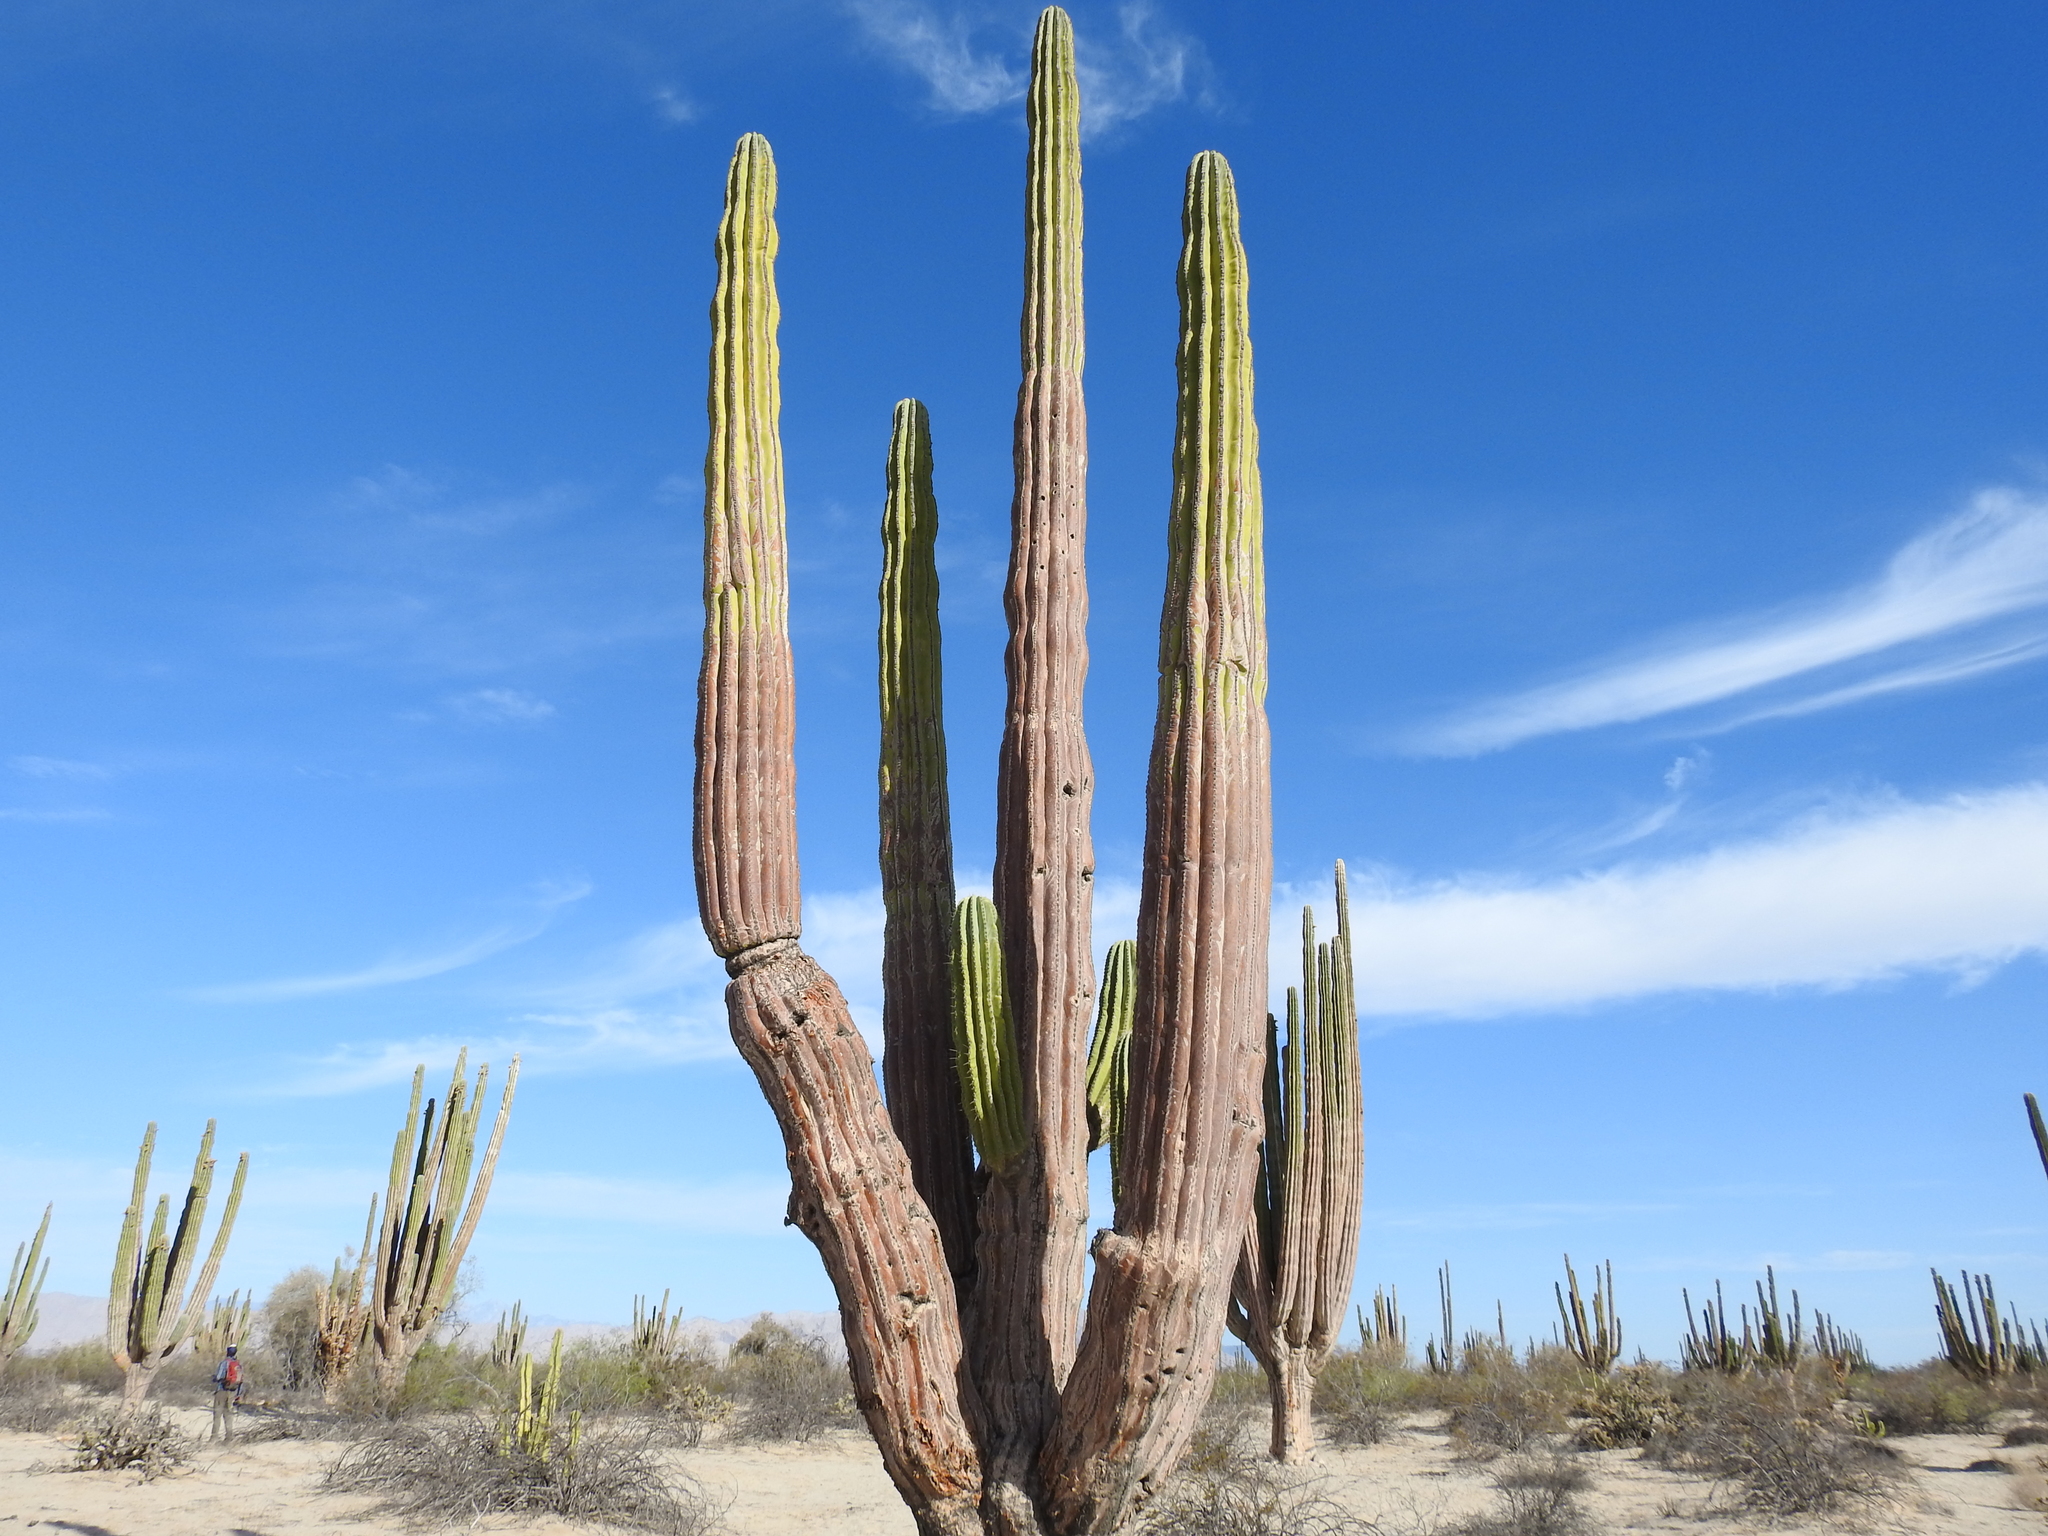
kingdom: Plantae
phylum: Tracheophyta
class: Magnoliopsida
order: Caryophyllales
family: Cactaceae
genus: Pachycereus
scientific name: Pachycereus pringlei
